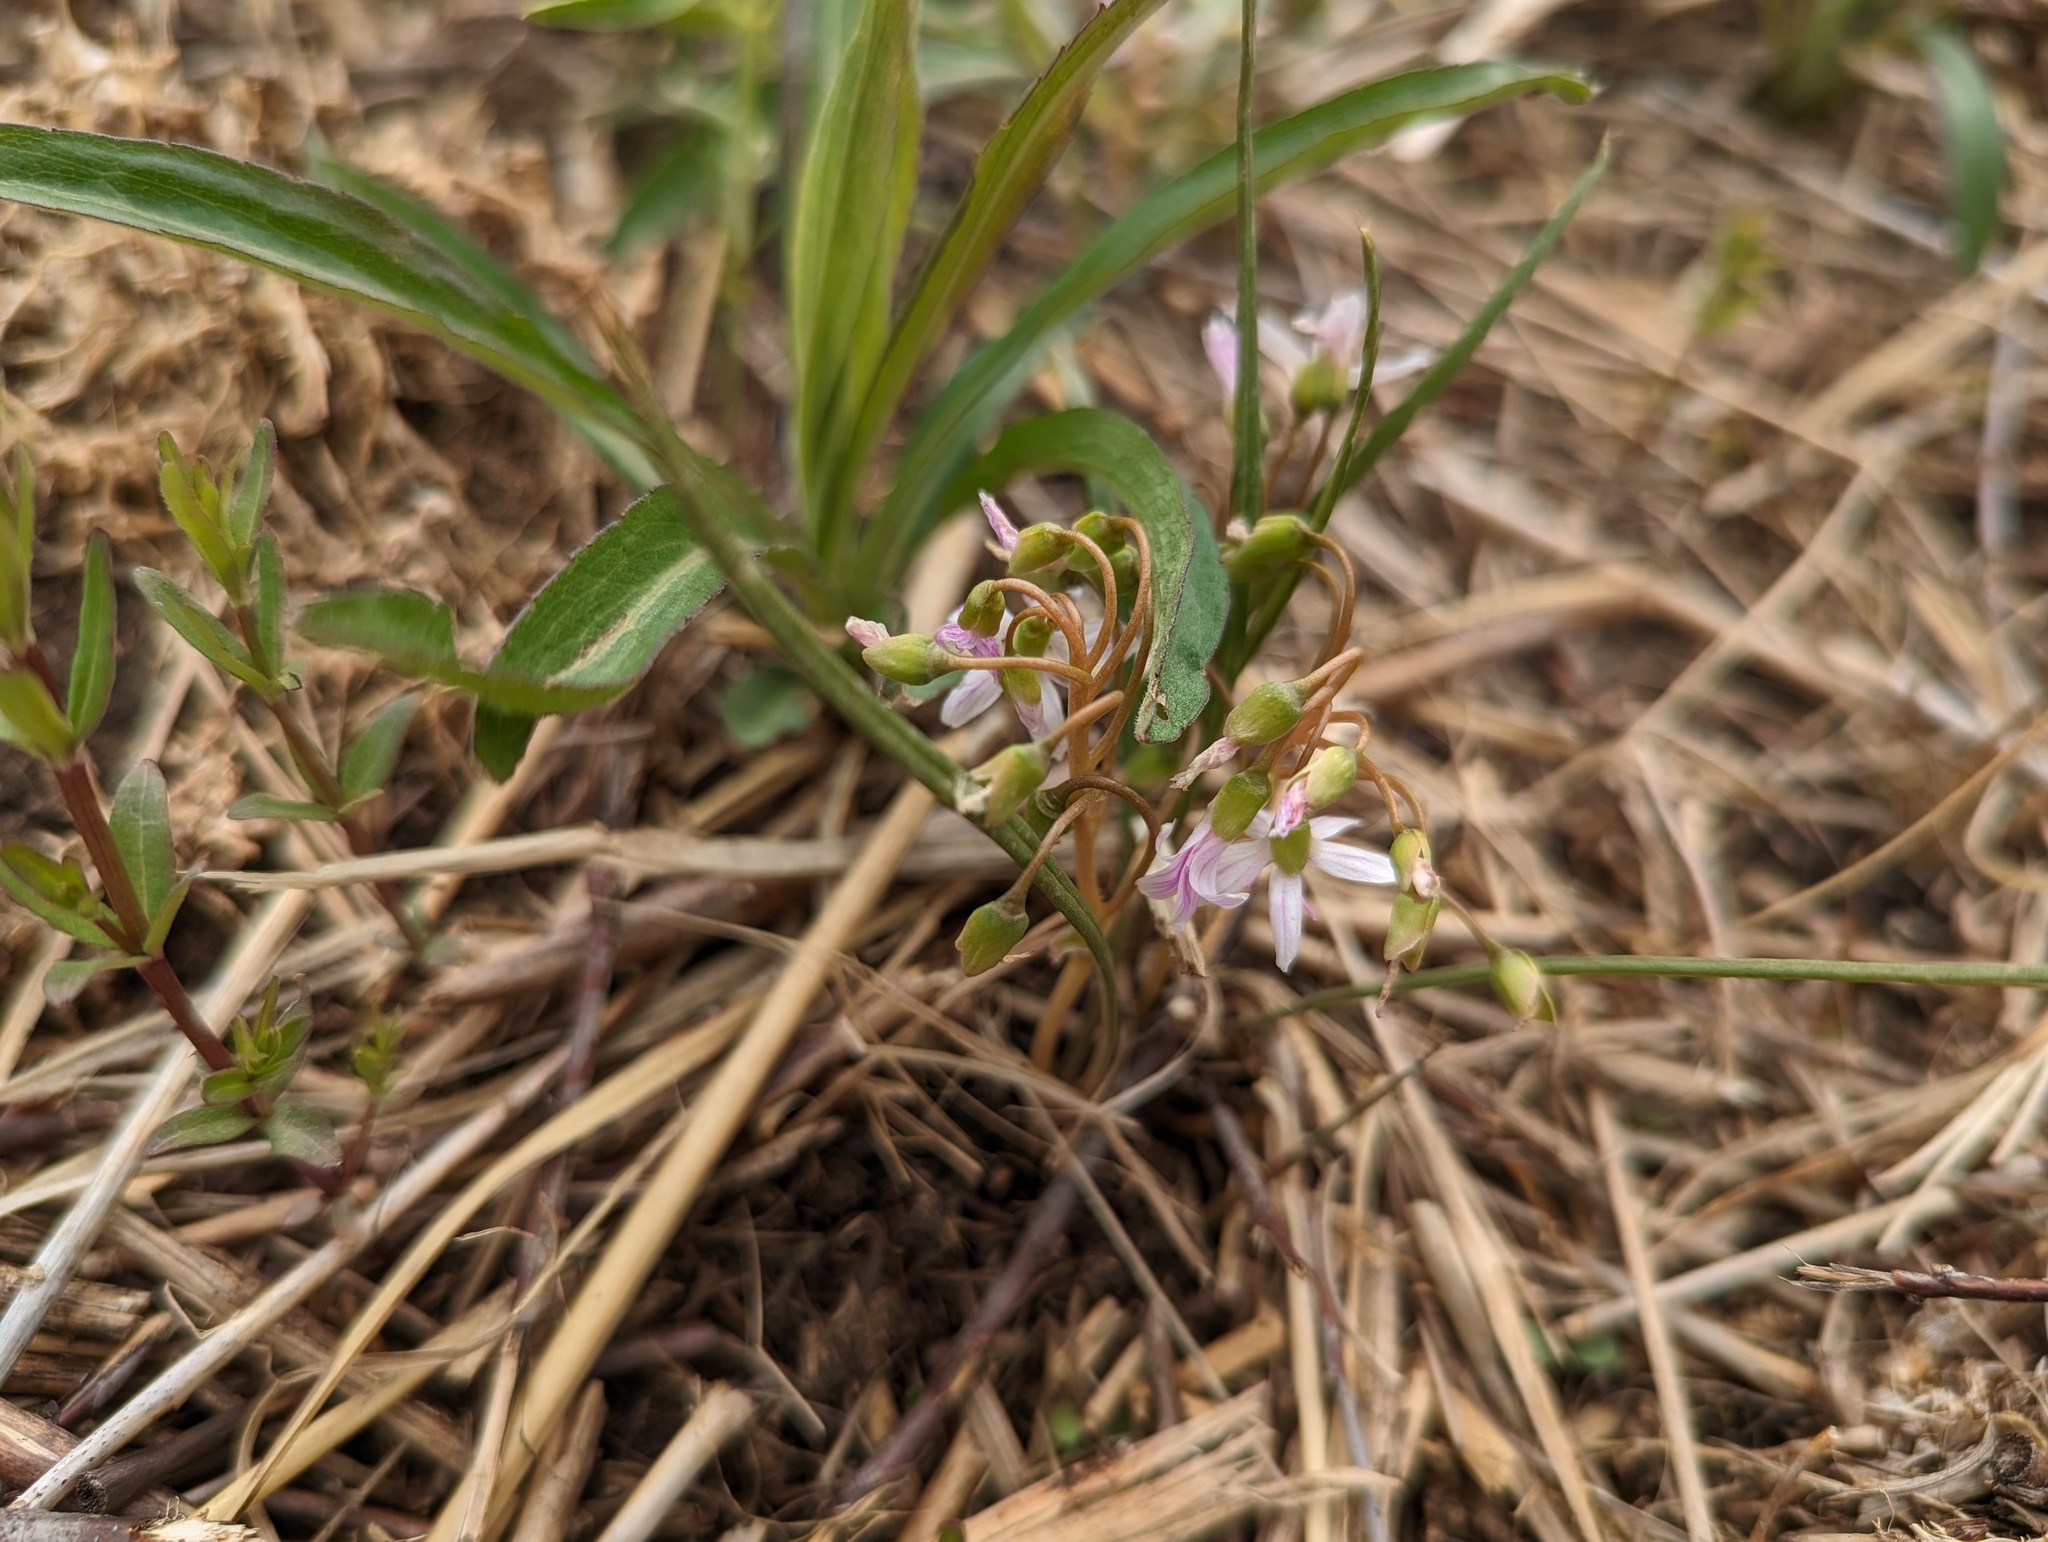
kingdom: Plantae
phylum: Tracheophyta
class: Magnoliopsida
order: Caryophyllales
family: Montiaceae
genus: Claytonia
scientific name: Claytonia virginica
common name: Virginia springbeauty
